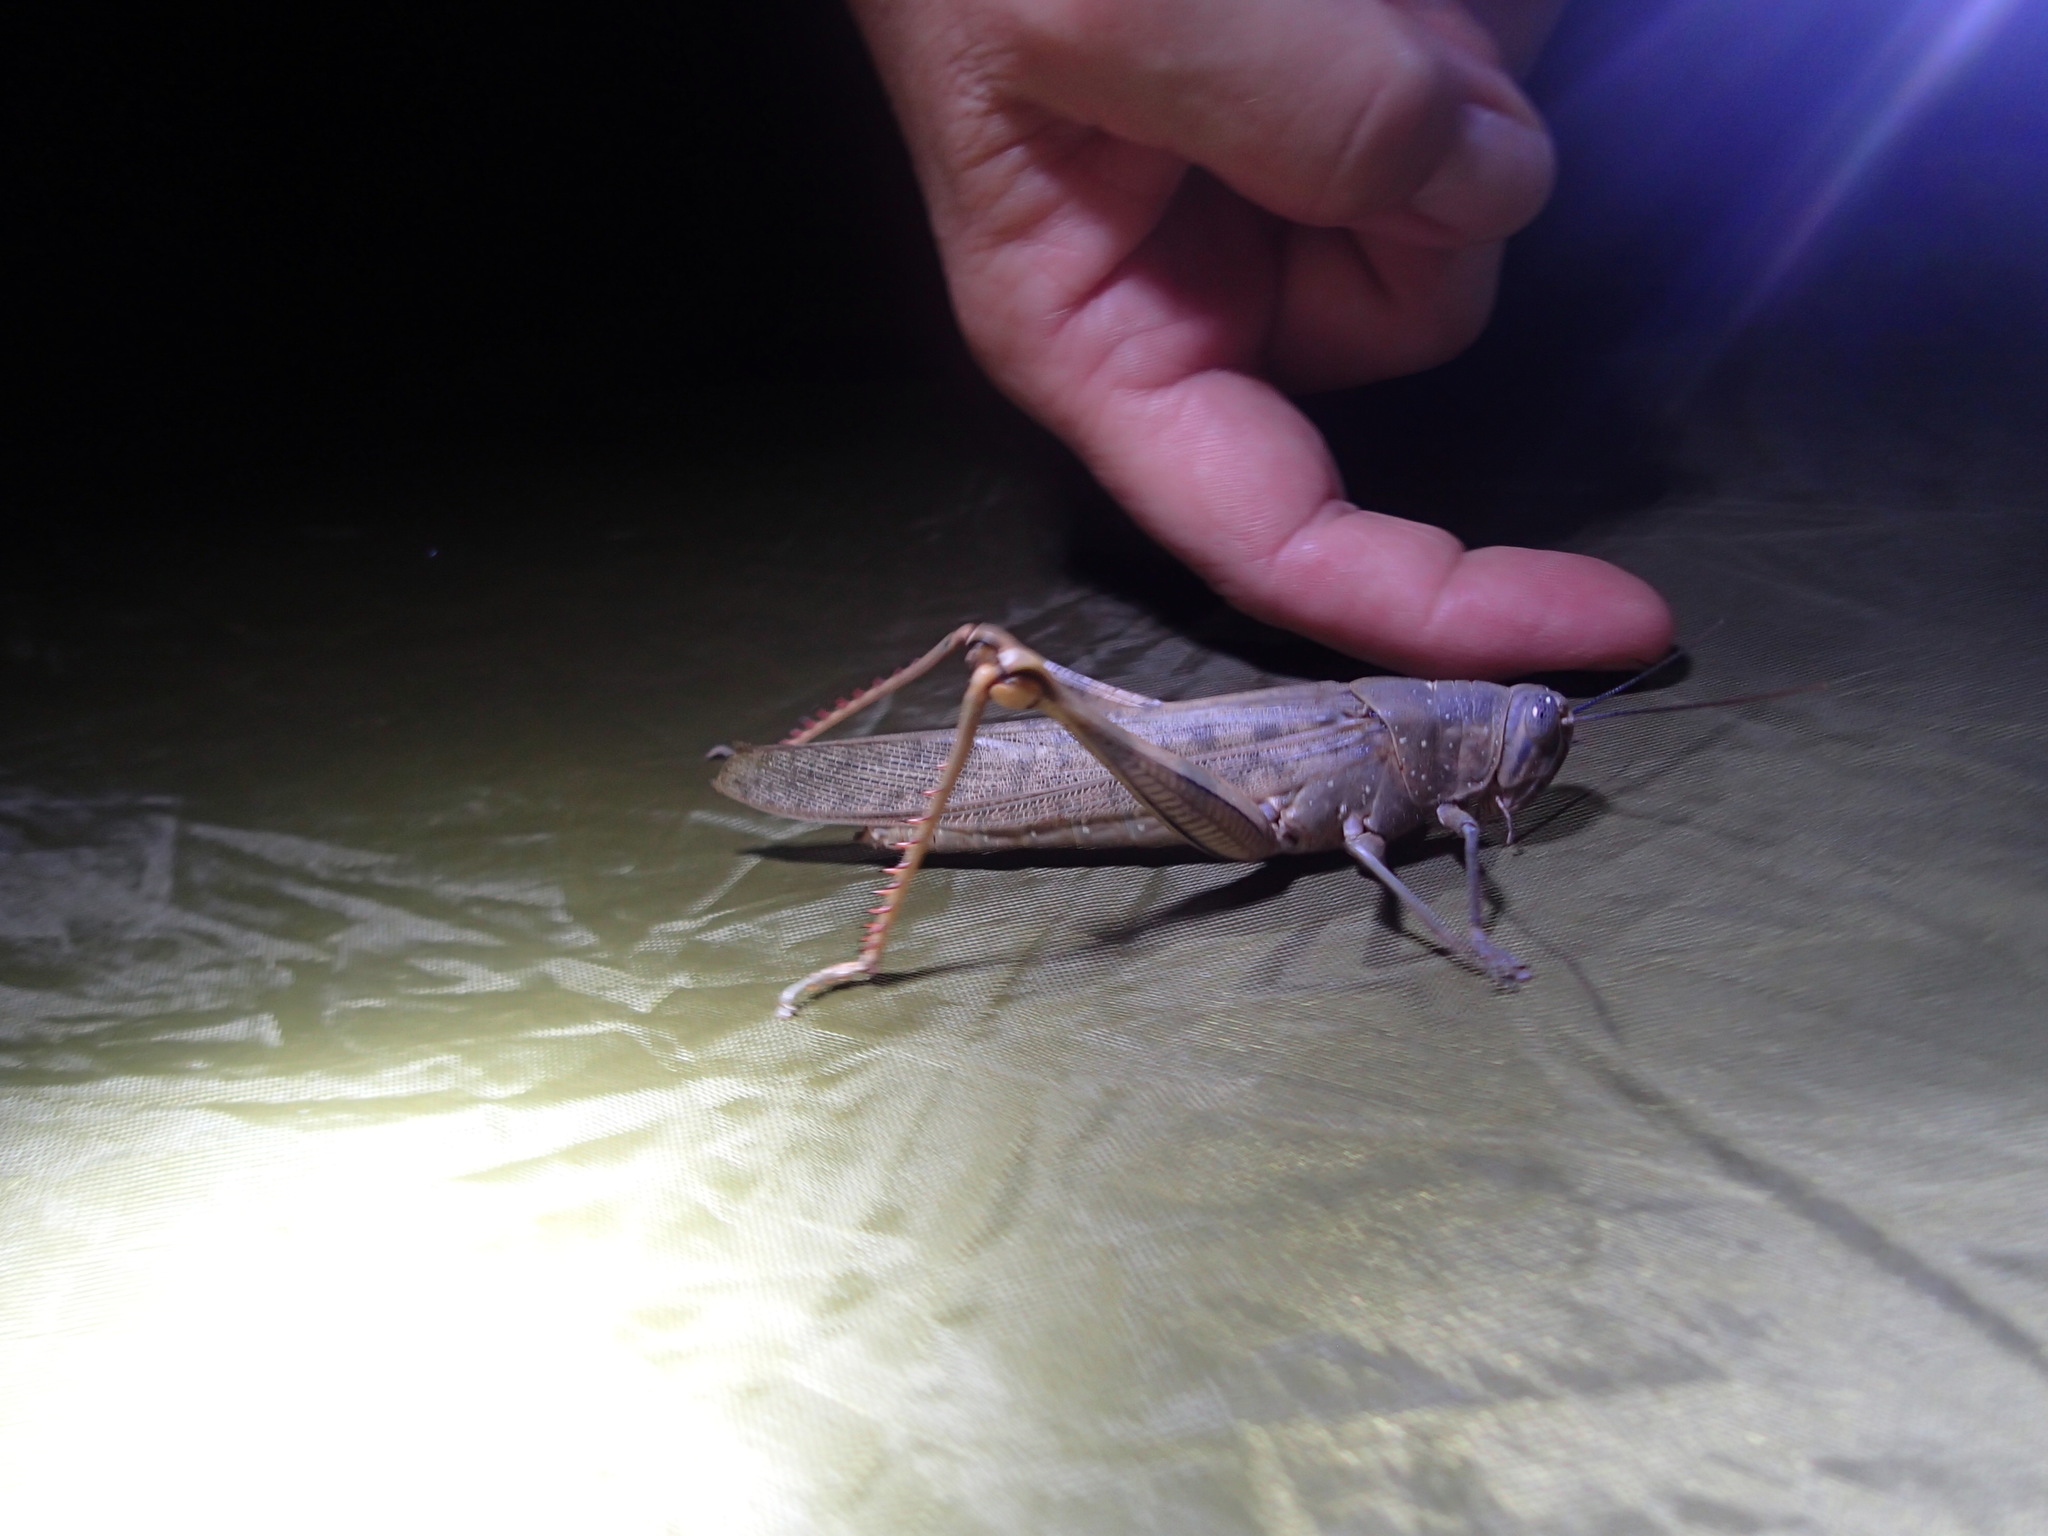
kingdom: Animalia
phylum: Arthropoda
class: Insecta
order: Orthoptera
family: Acrididae
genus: Valanga
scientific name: Valanga irregularis
